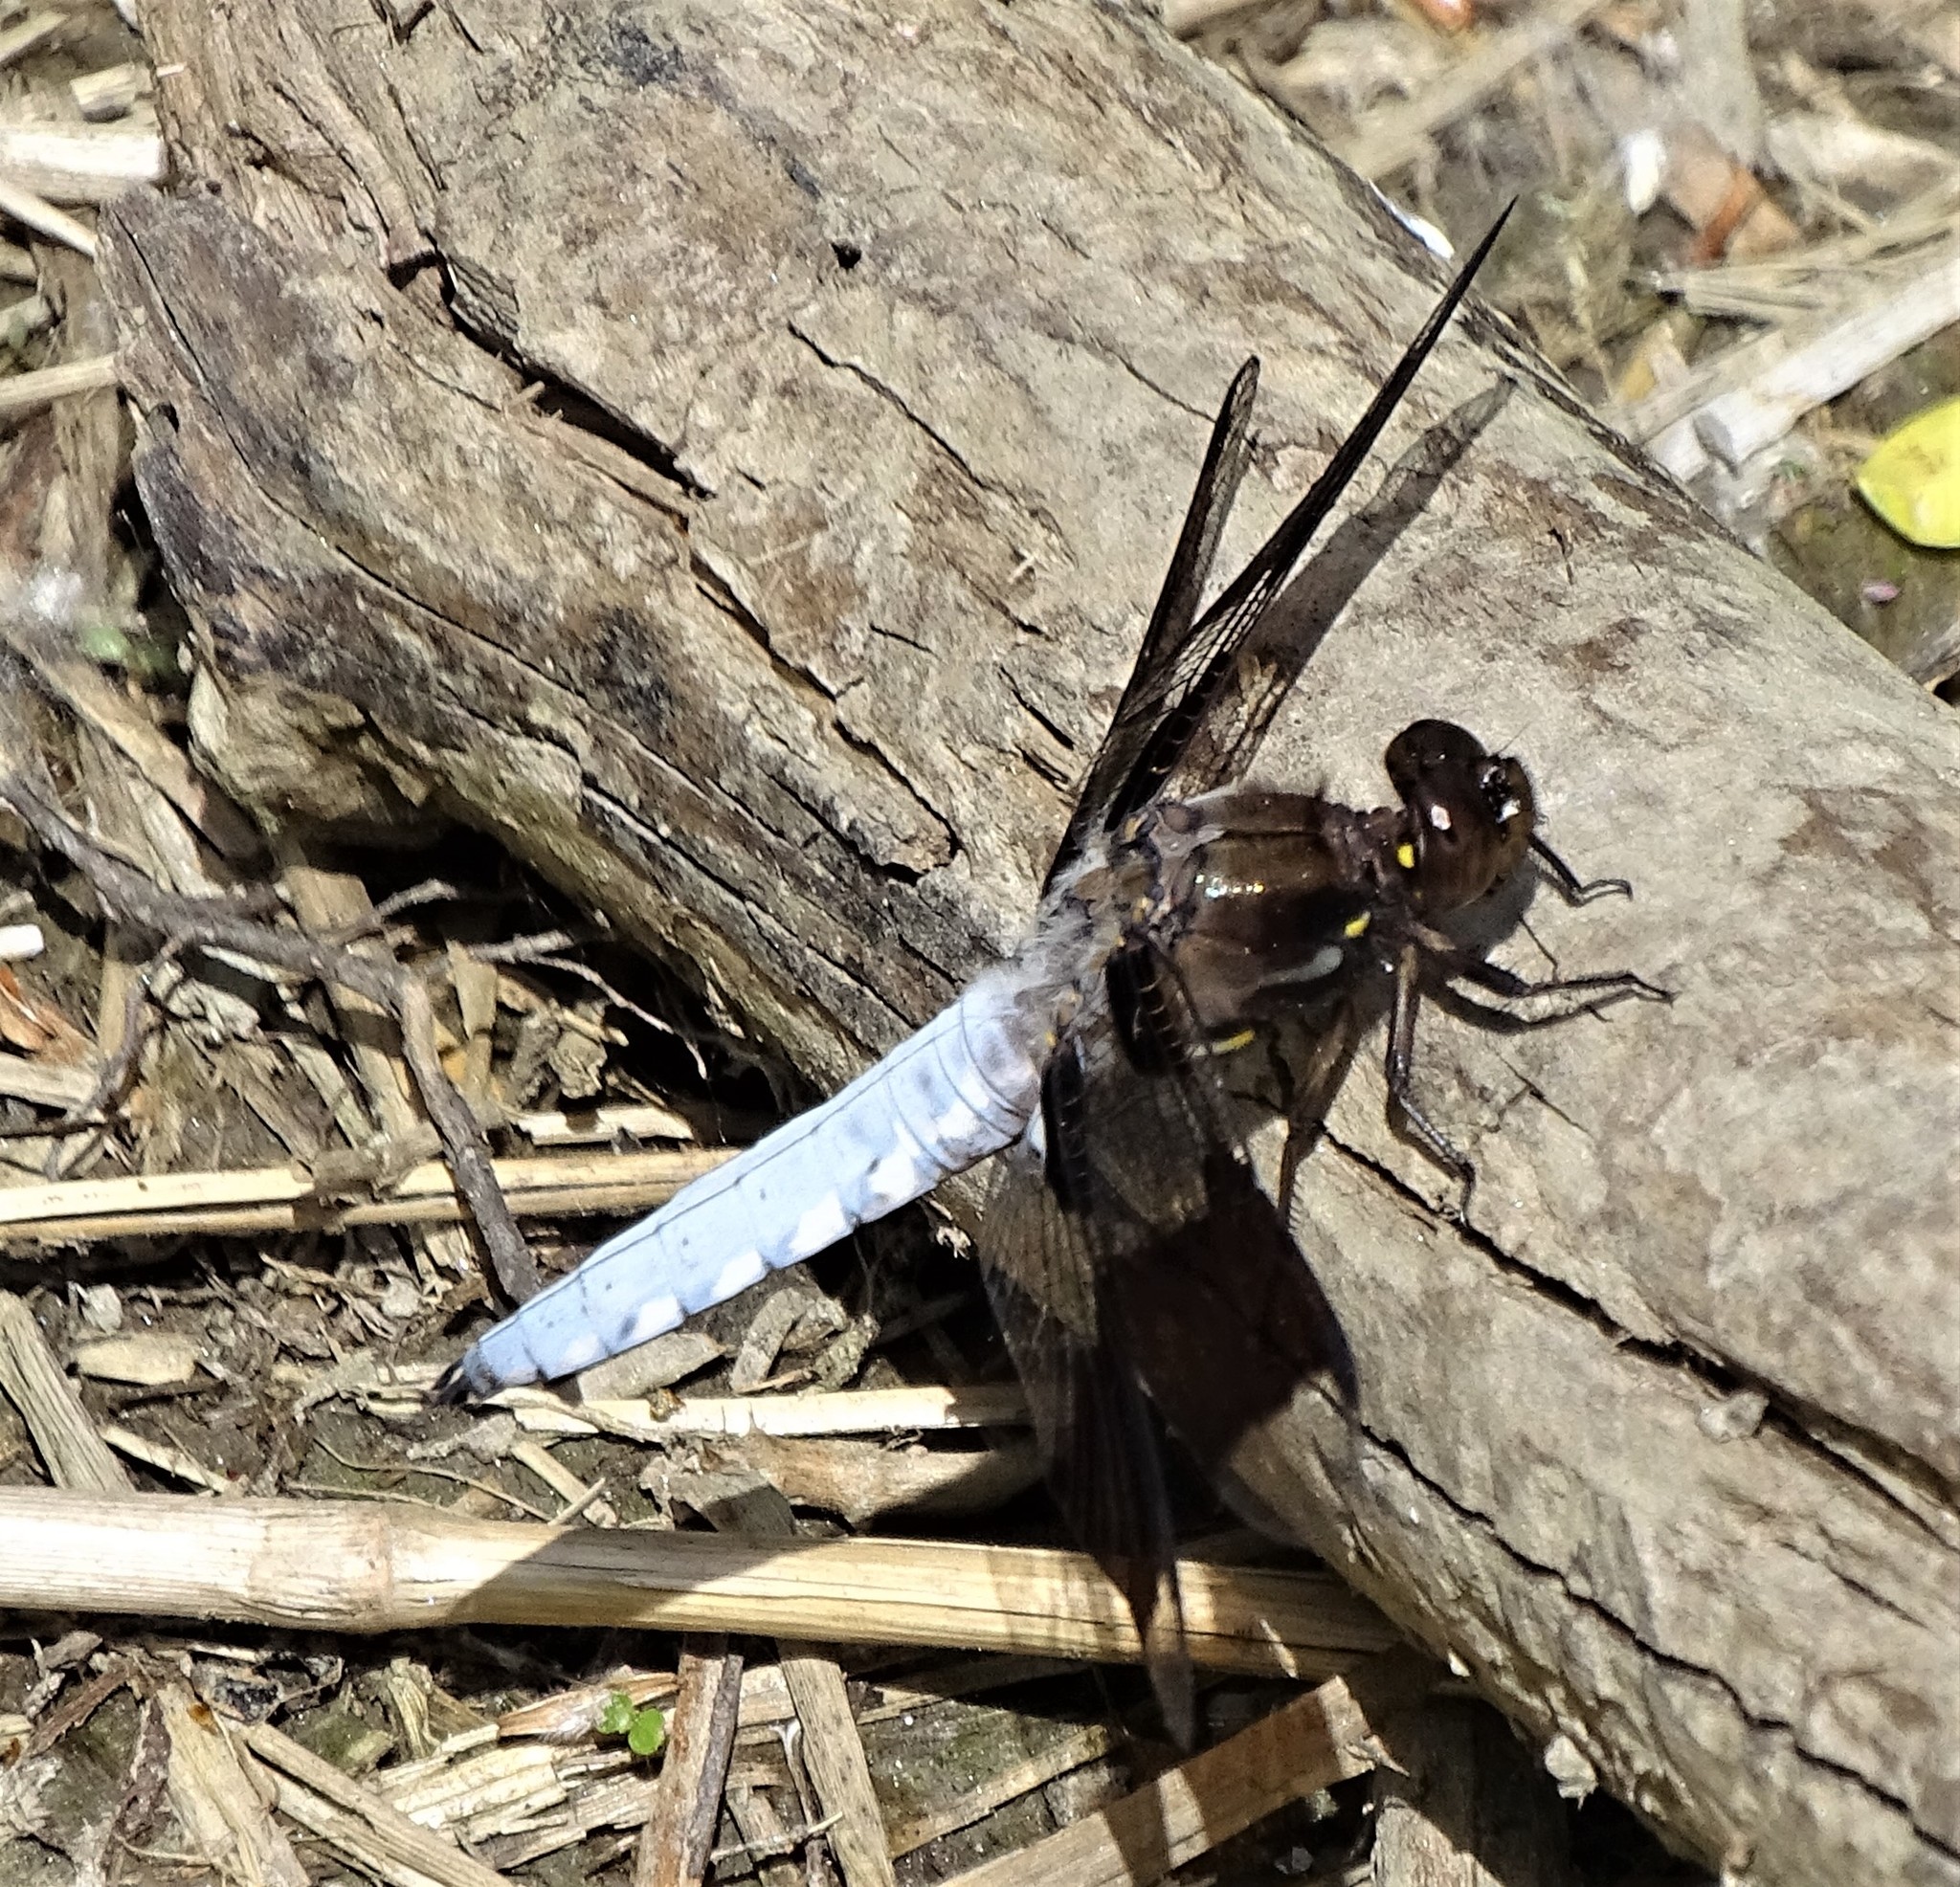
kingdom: Animalia
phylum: Arthropoda
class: Insecta
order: Odonata
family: Libellulidae
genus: Plathemis
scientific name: Plathemis lydia
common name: Common whitetail
